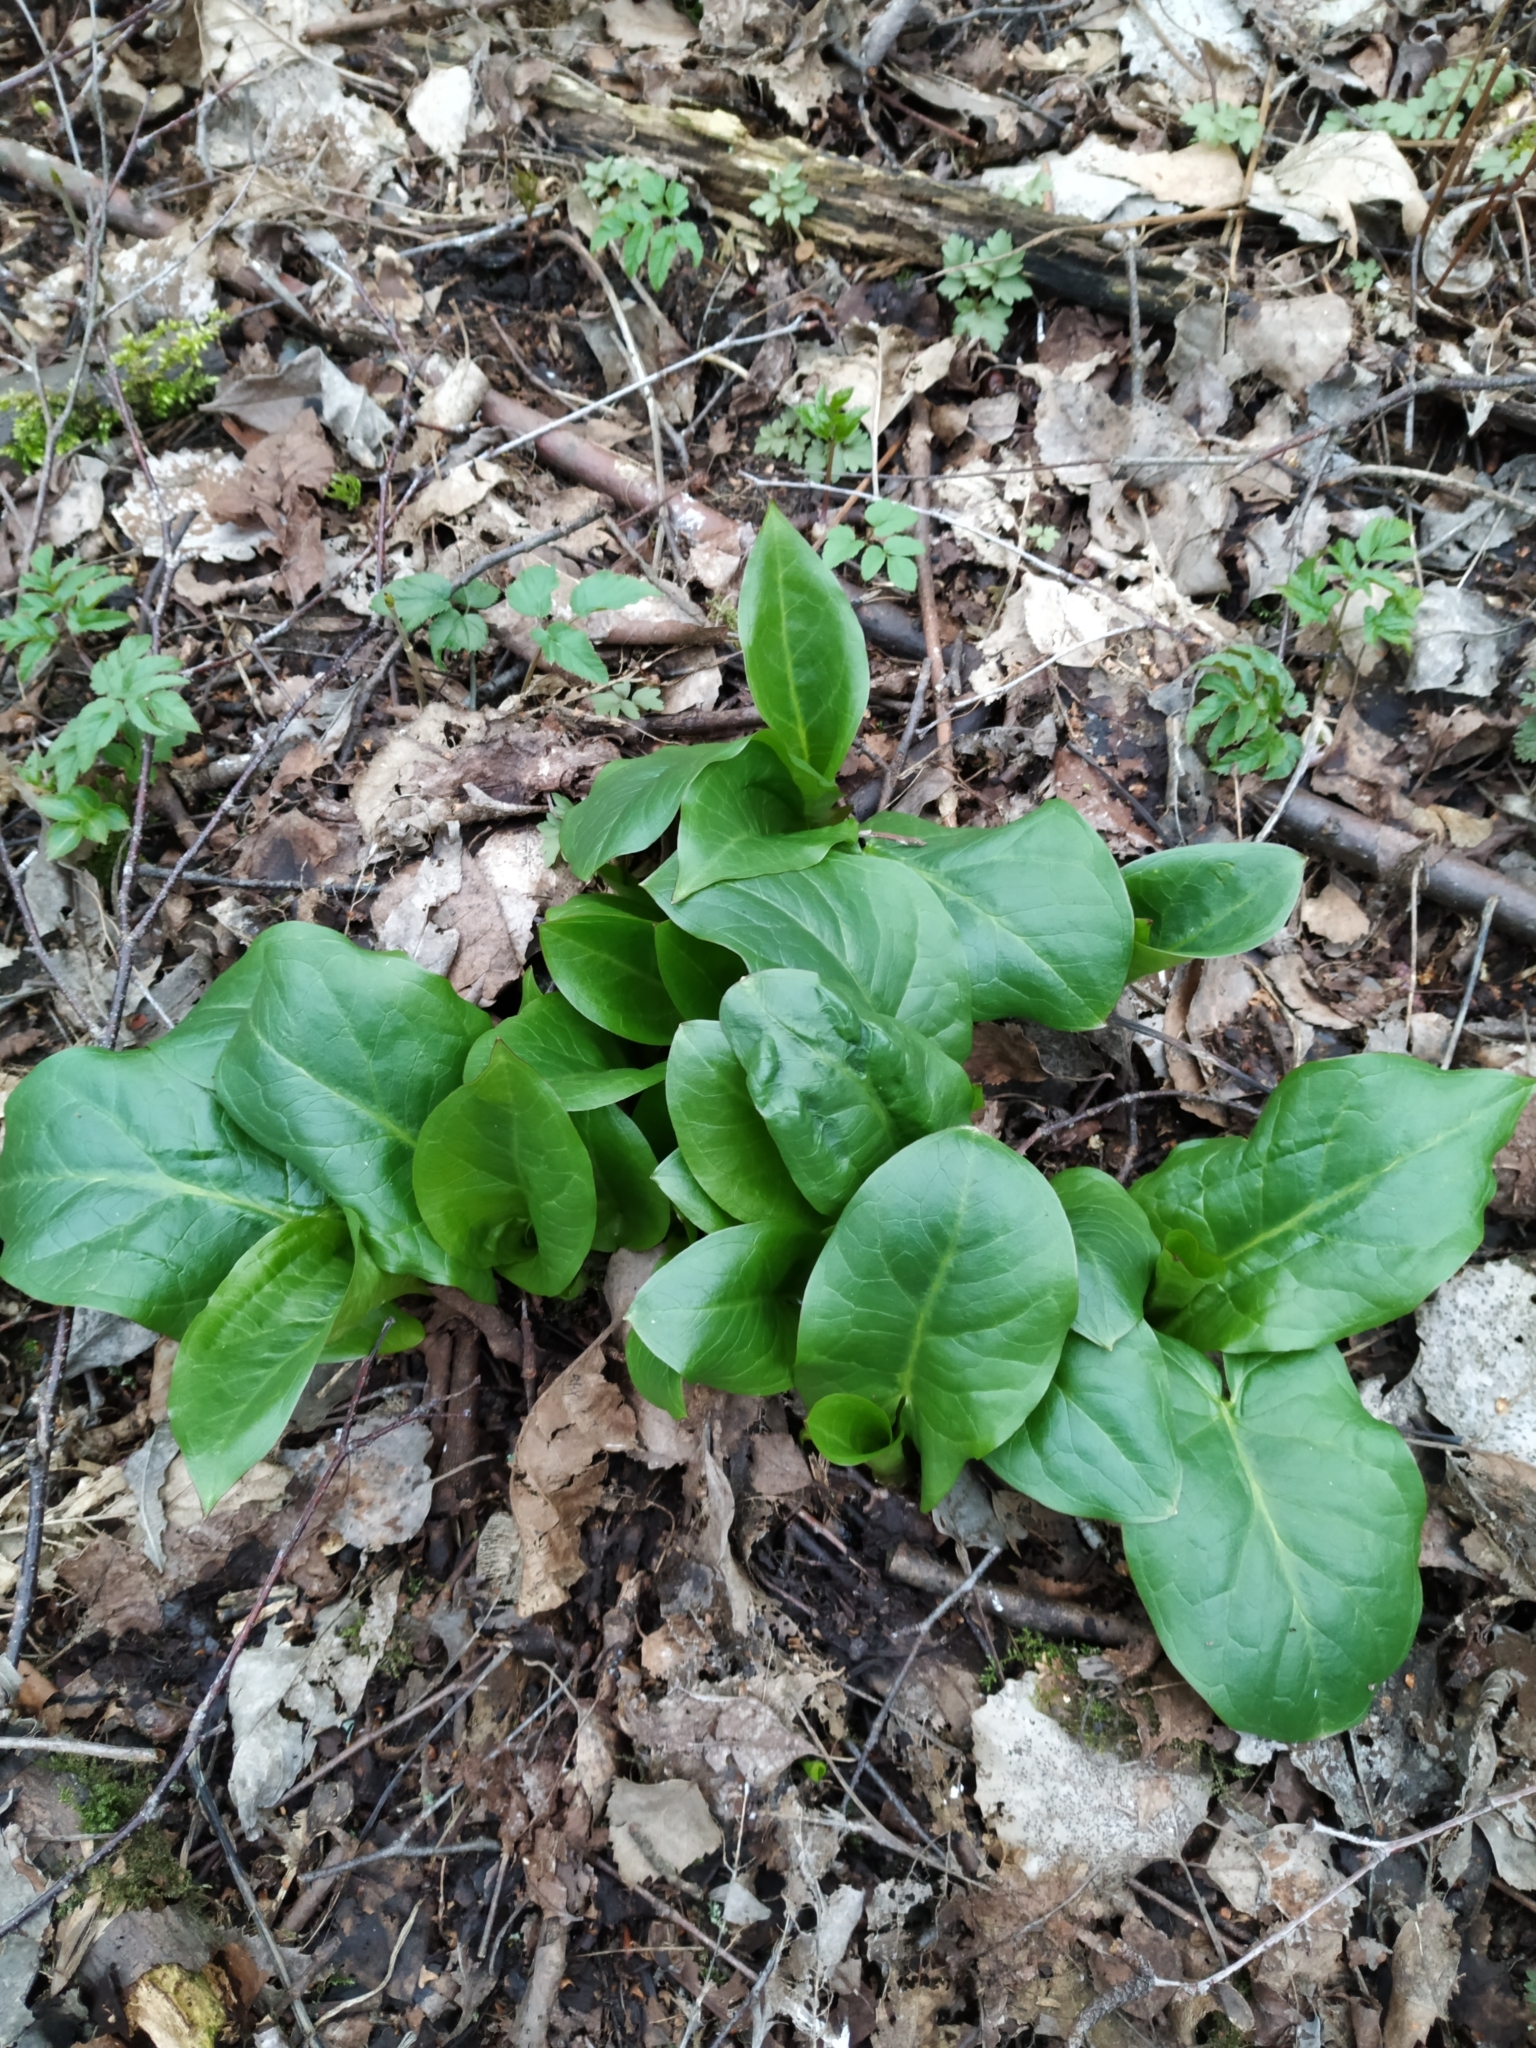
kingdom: Plantae
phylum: Tracheophyta
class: Liliopsida
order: Alismatales
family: Araceae
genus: Arum
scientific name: Arum maculatum
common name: Lords-and-ladies
